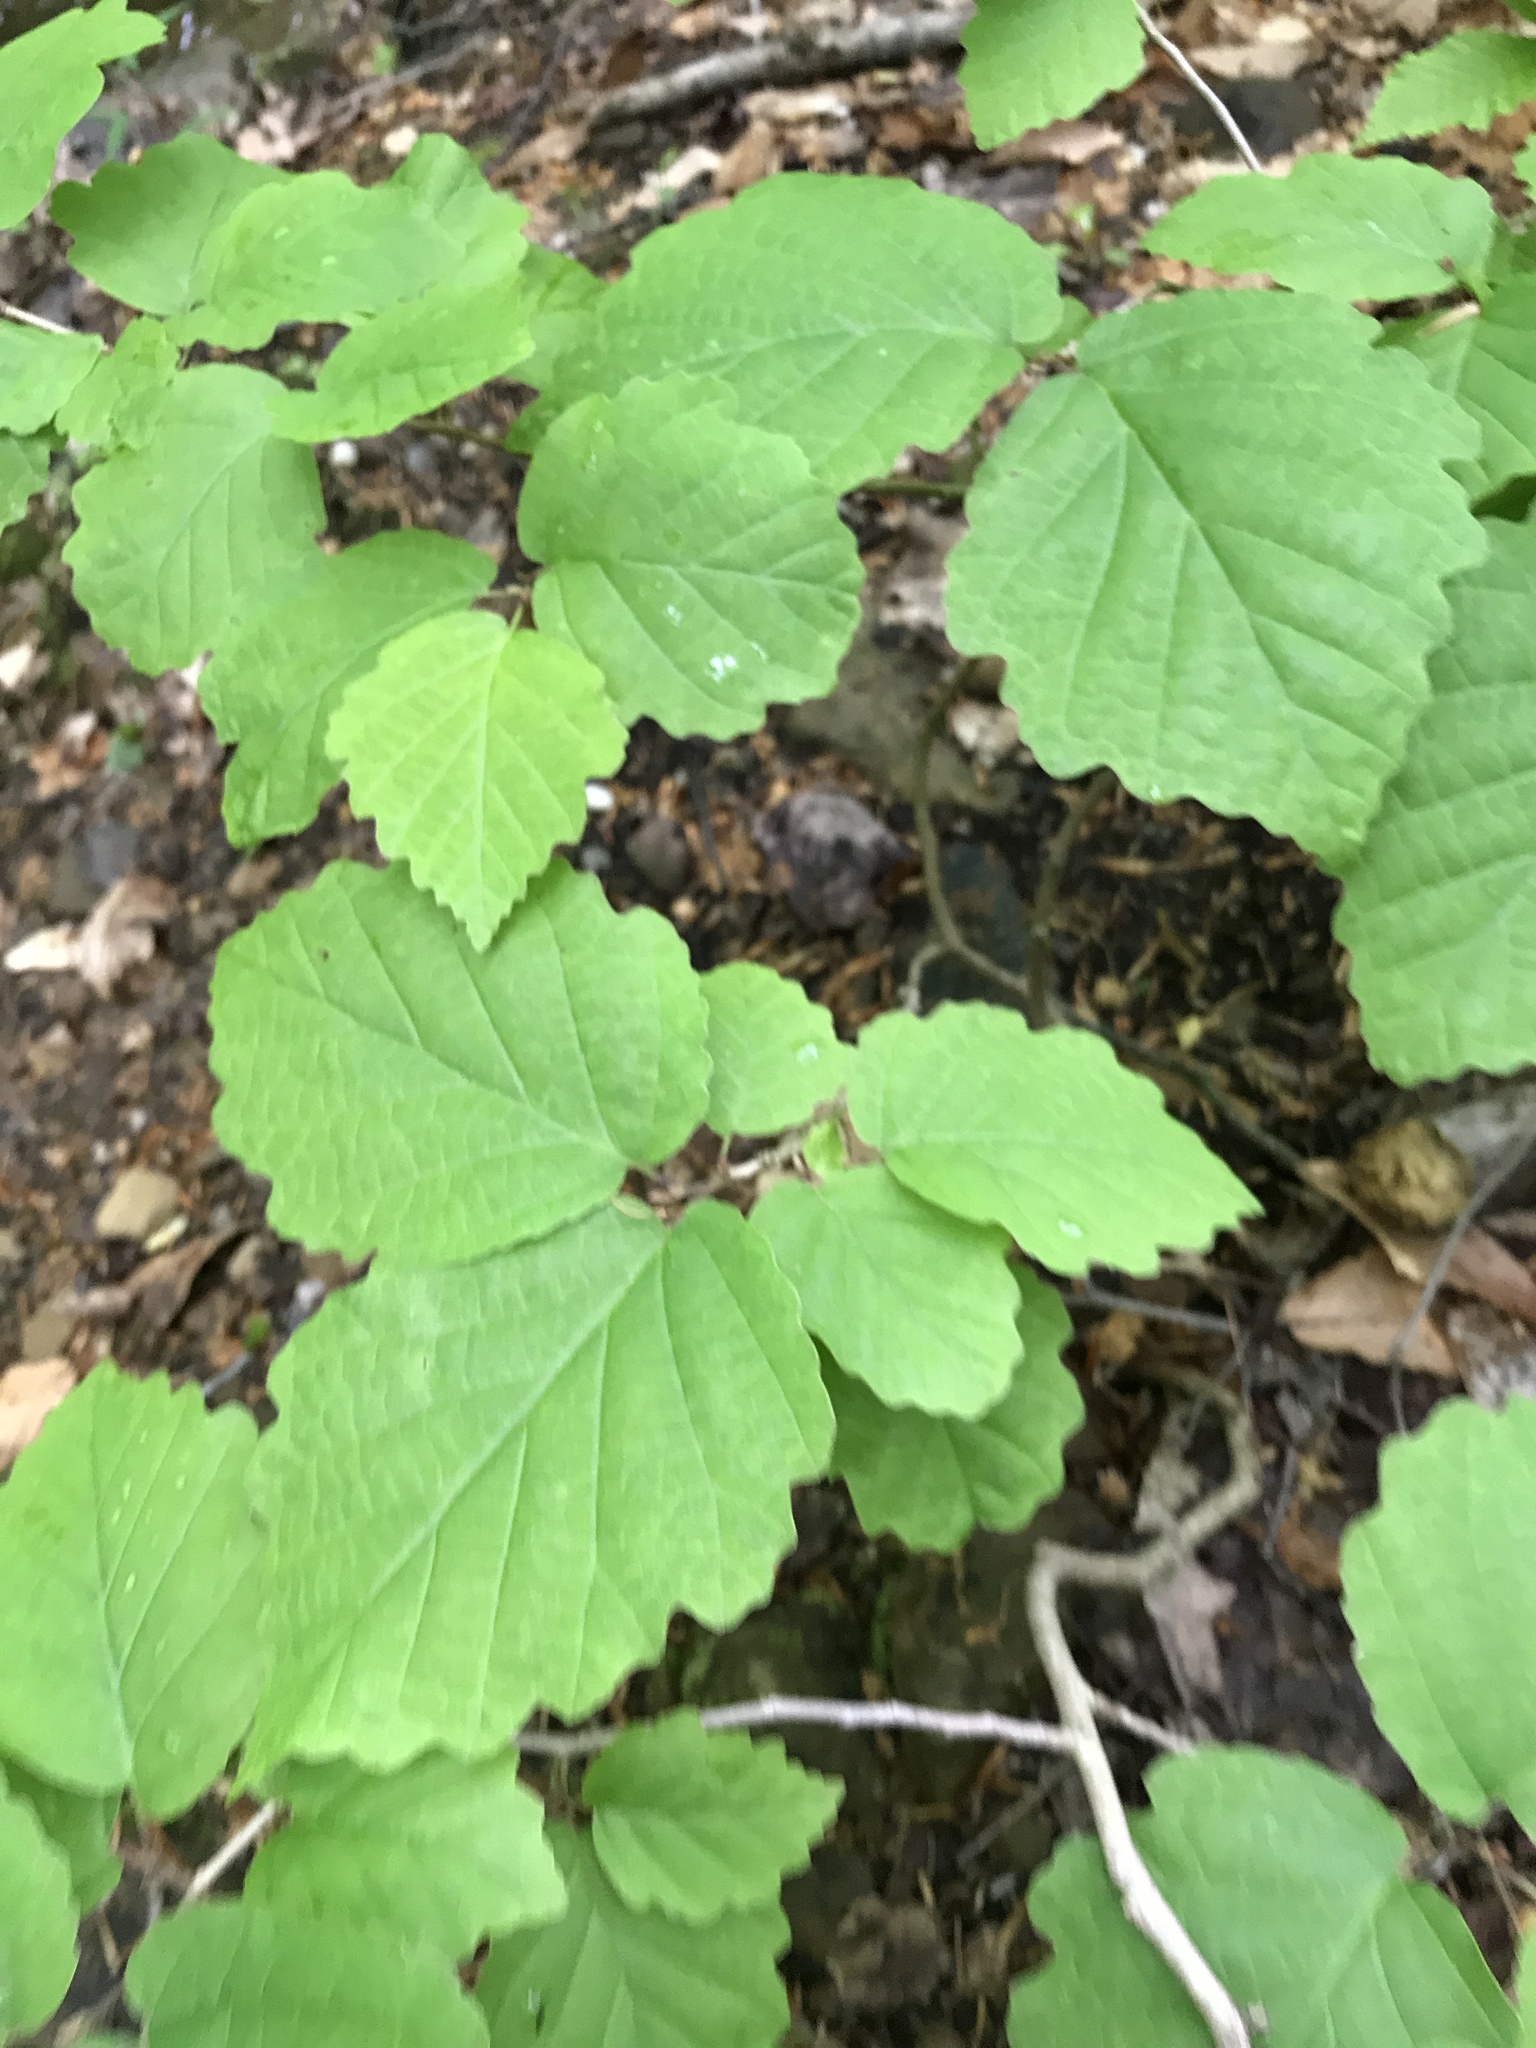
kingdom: Plantae
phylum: Tracheophyta
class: Magnoliopsida
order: Saxifragales
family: Hamamelidaceae
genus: Hamamelis
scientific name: Hamamelis virginiana
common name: Witch-hazel
